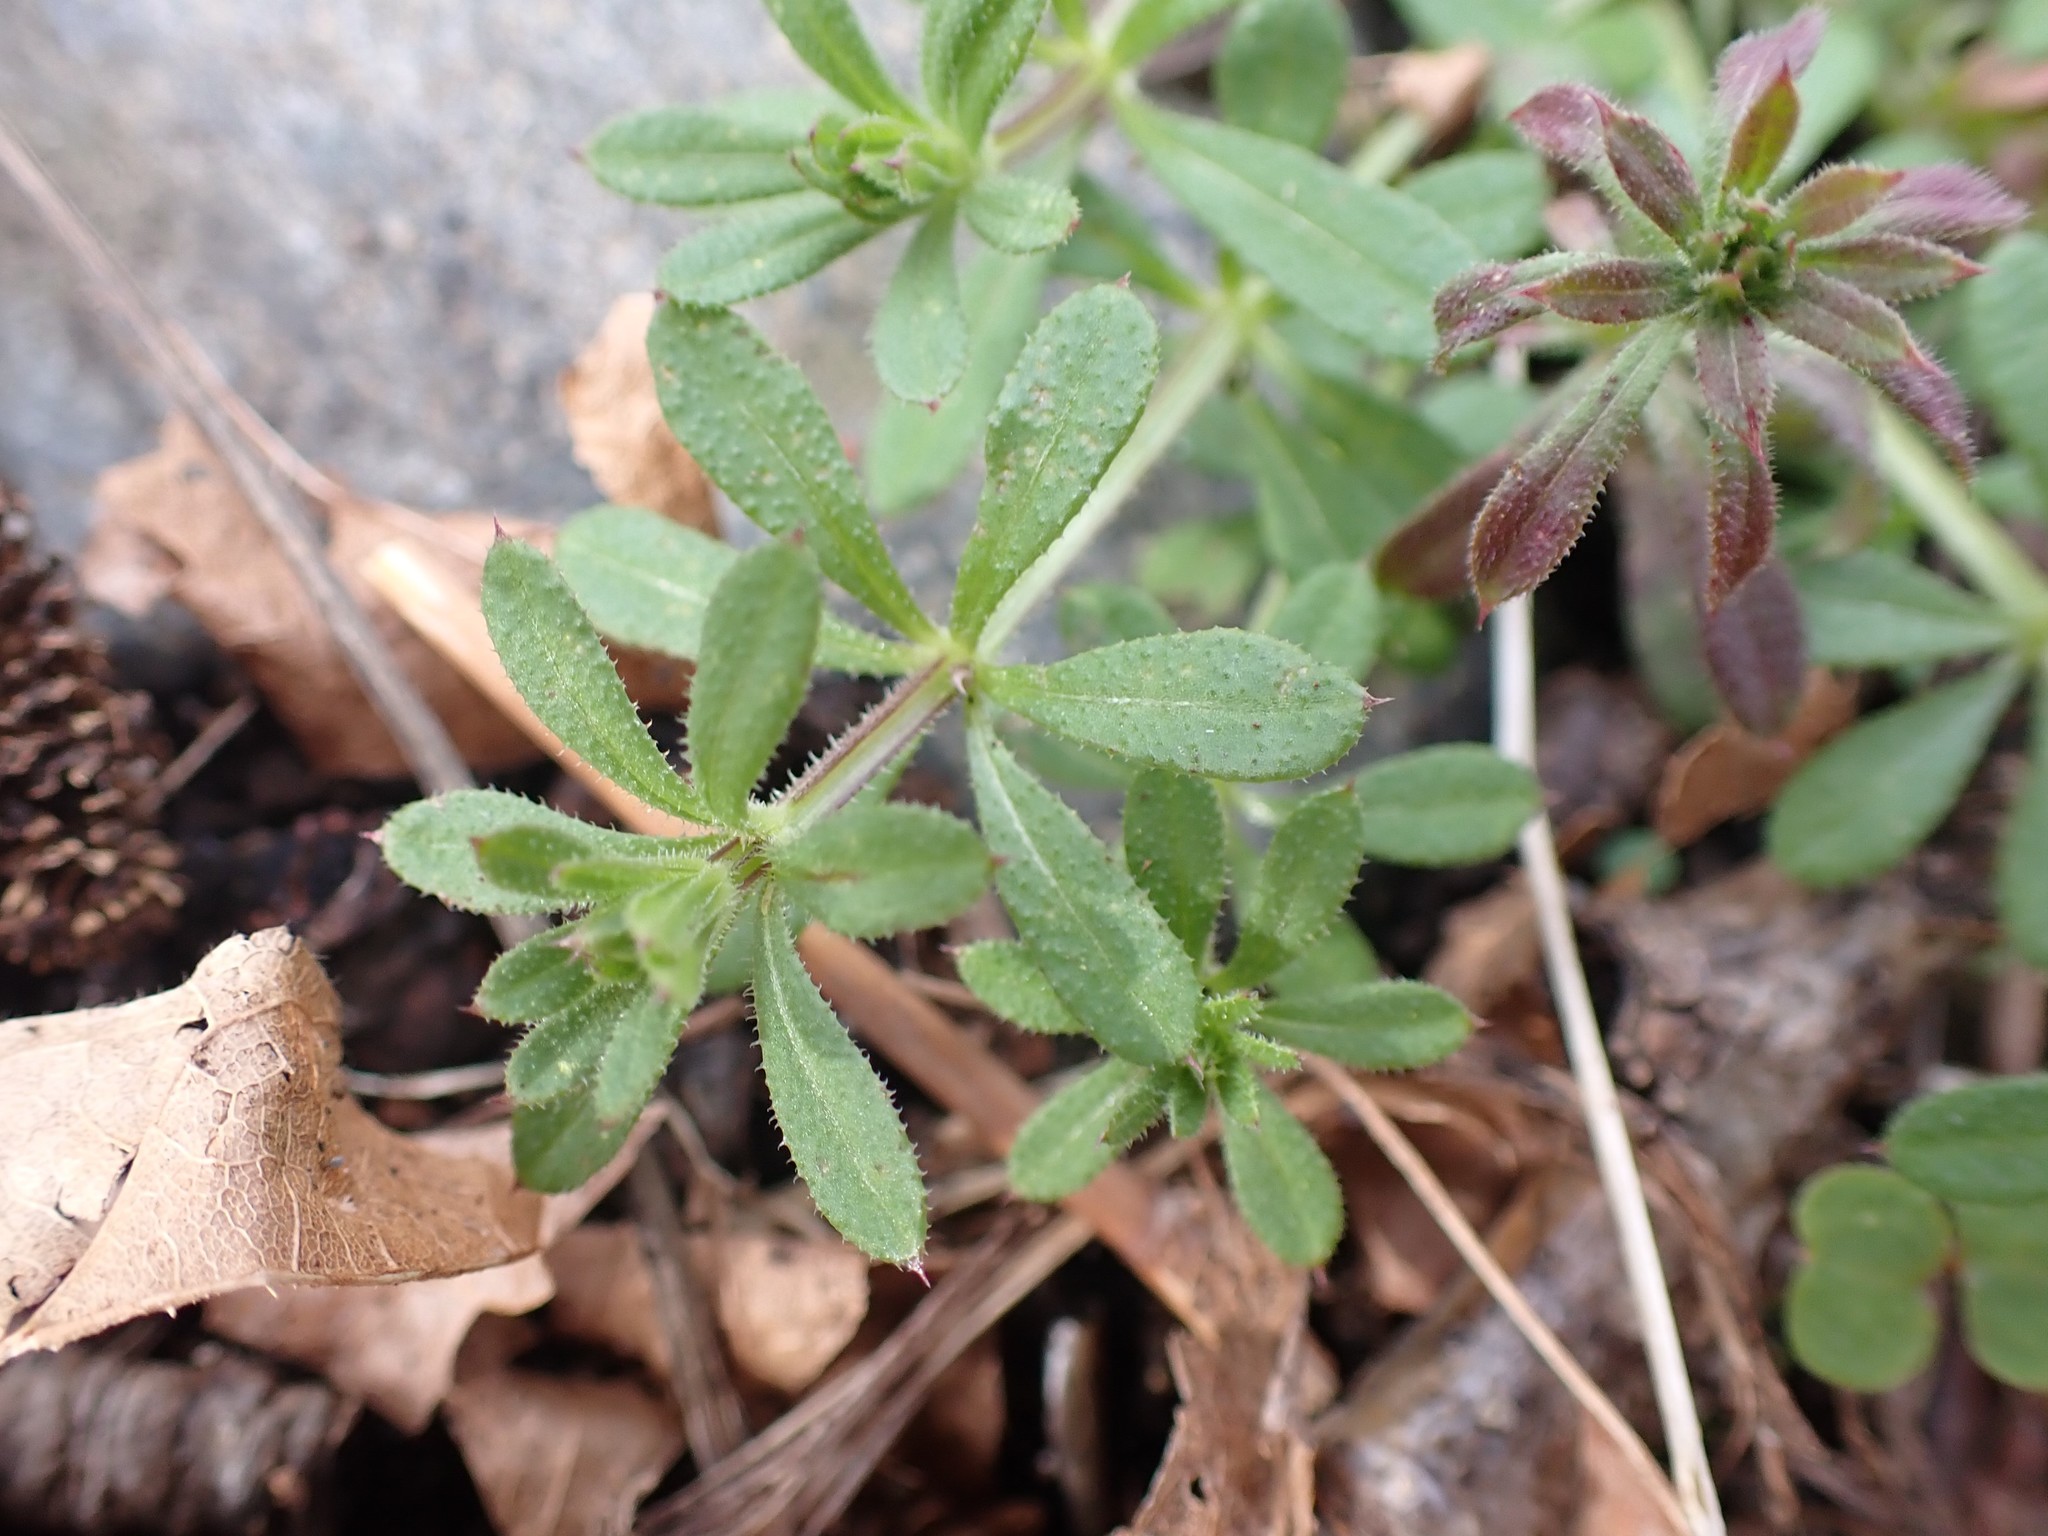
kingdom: Plantae
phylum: Tracheophyta
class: Magnoliopsida
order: Gentianales
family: Rubiaceae
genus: Galium
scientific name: Galium aparine
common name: Cleavers
